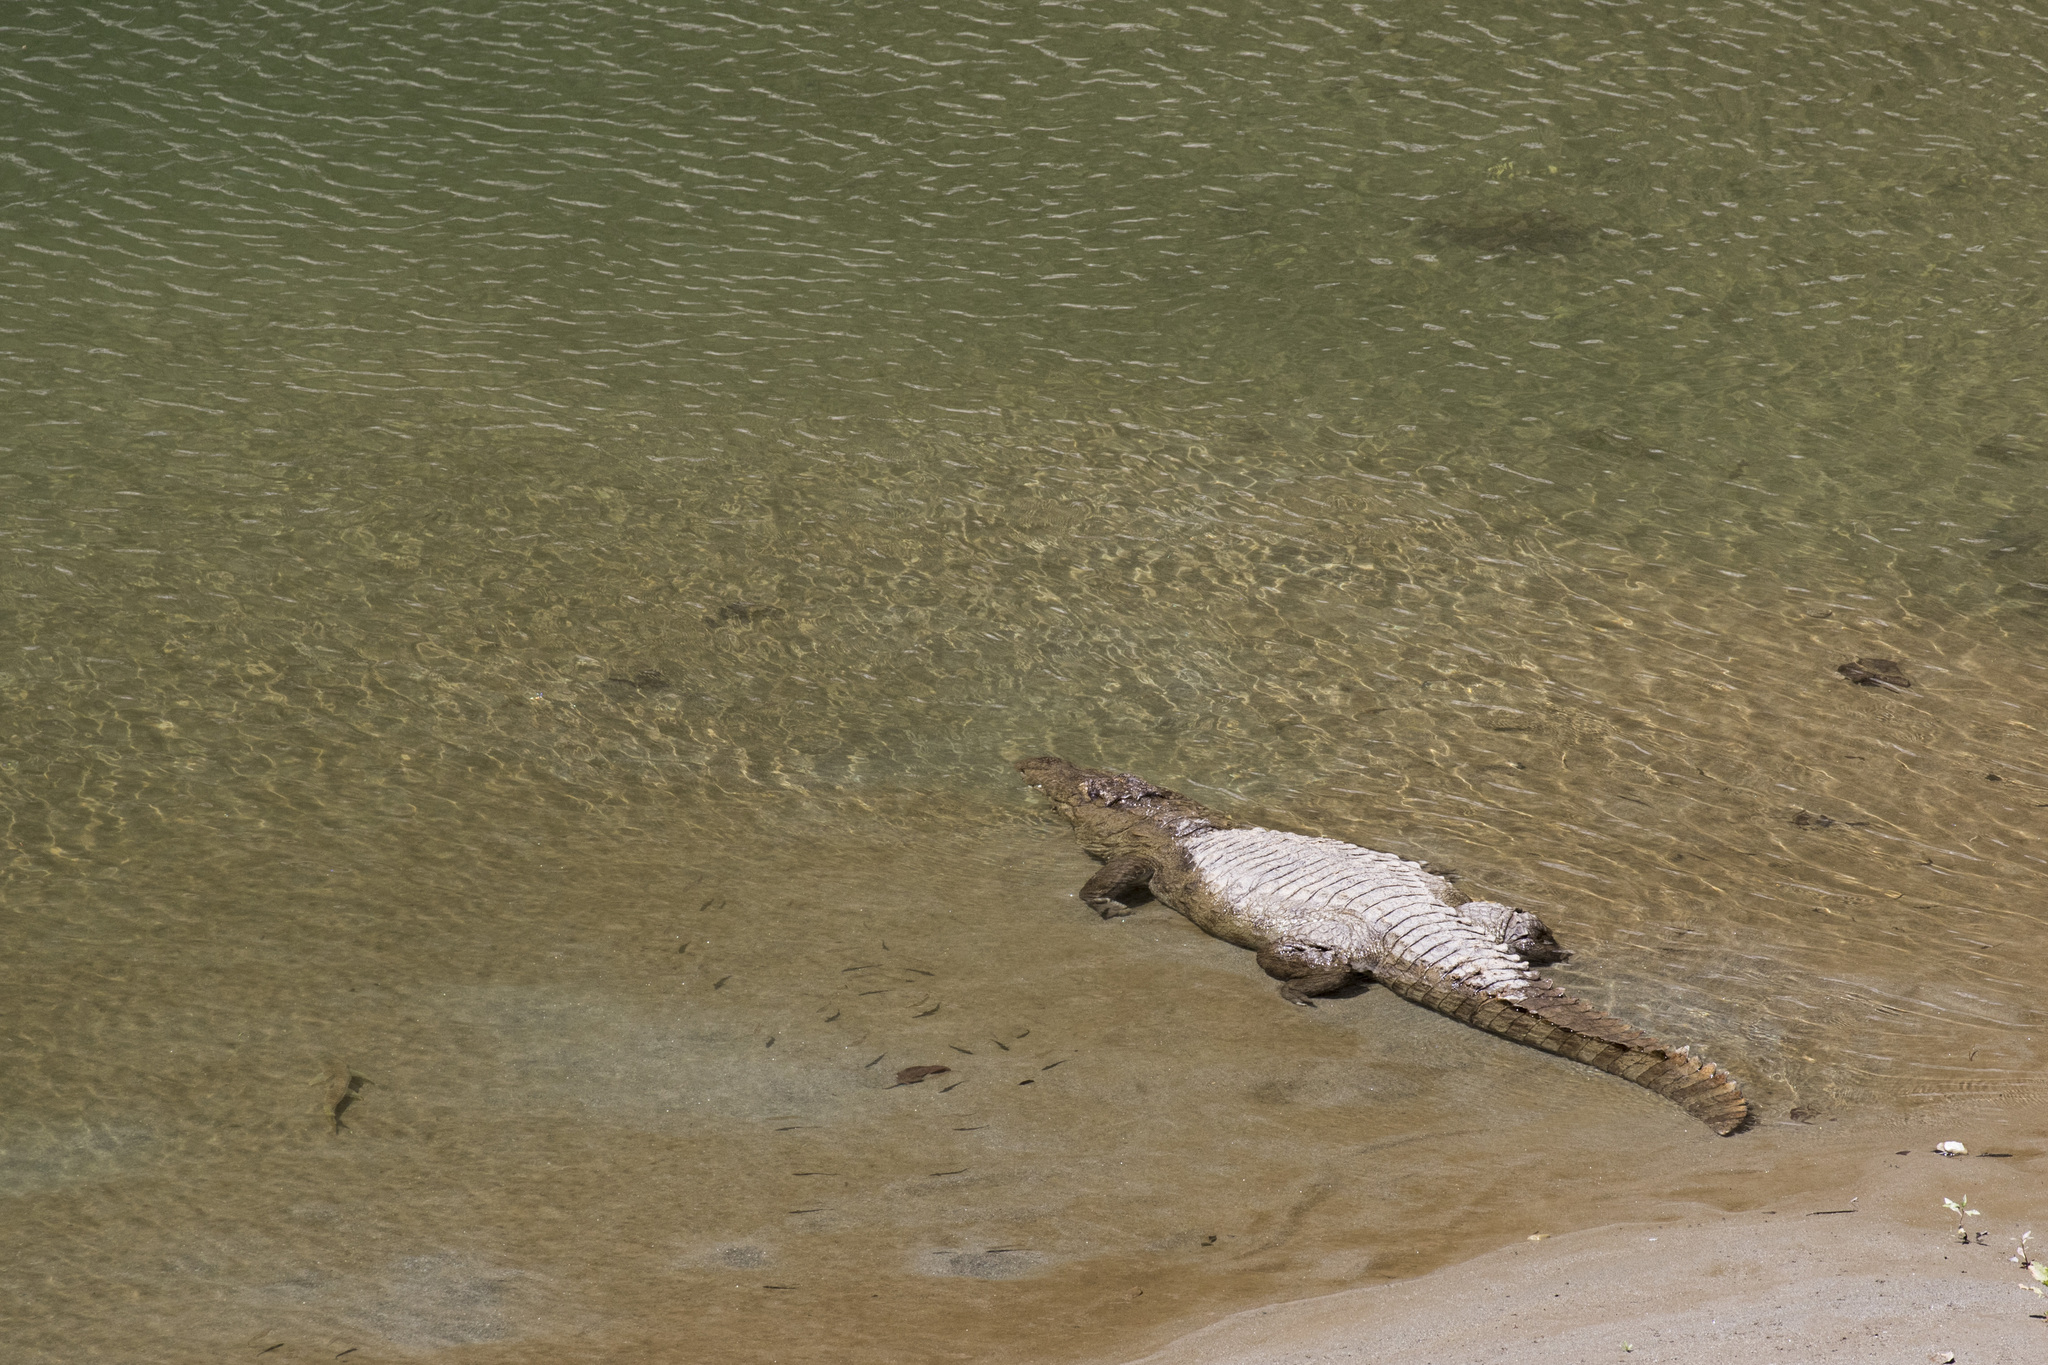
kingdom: Animalia
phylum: Chordata
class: Crocodylia
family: Crocodylidae
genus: Crocodylus
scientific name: Crocodylus palustris
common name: Mugger crocodile
